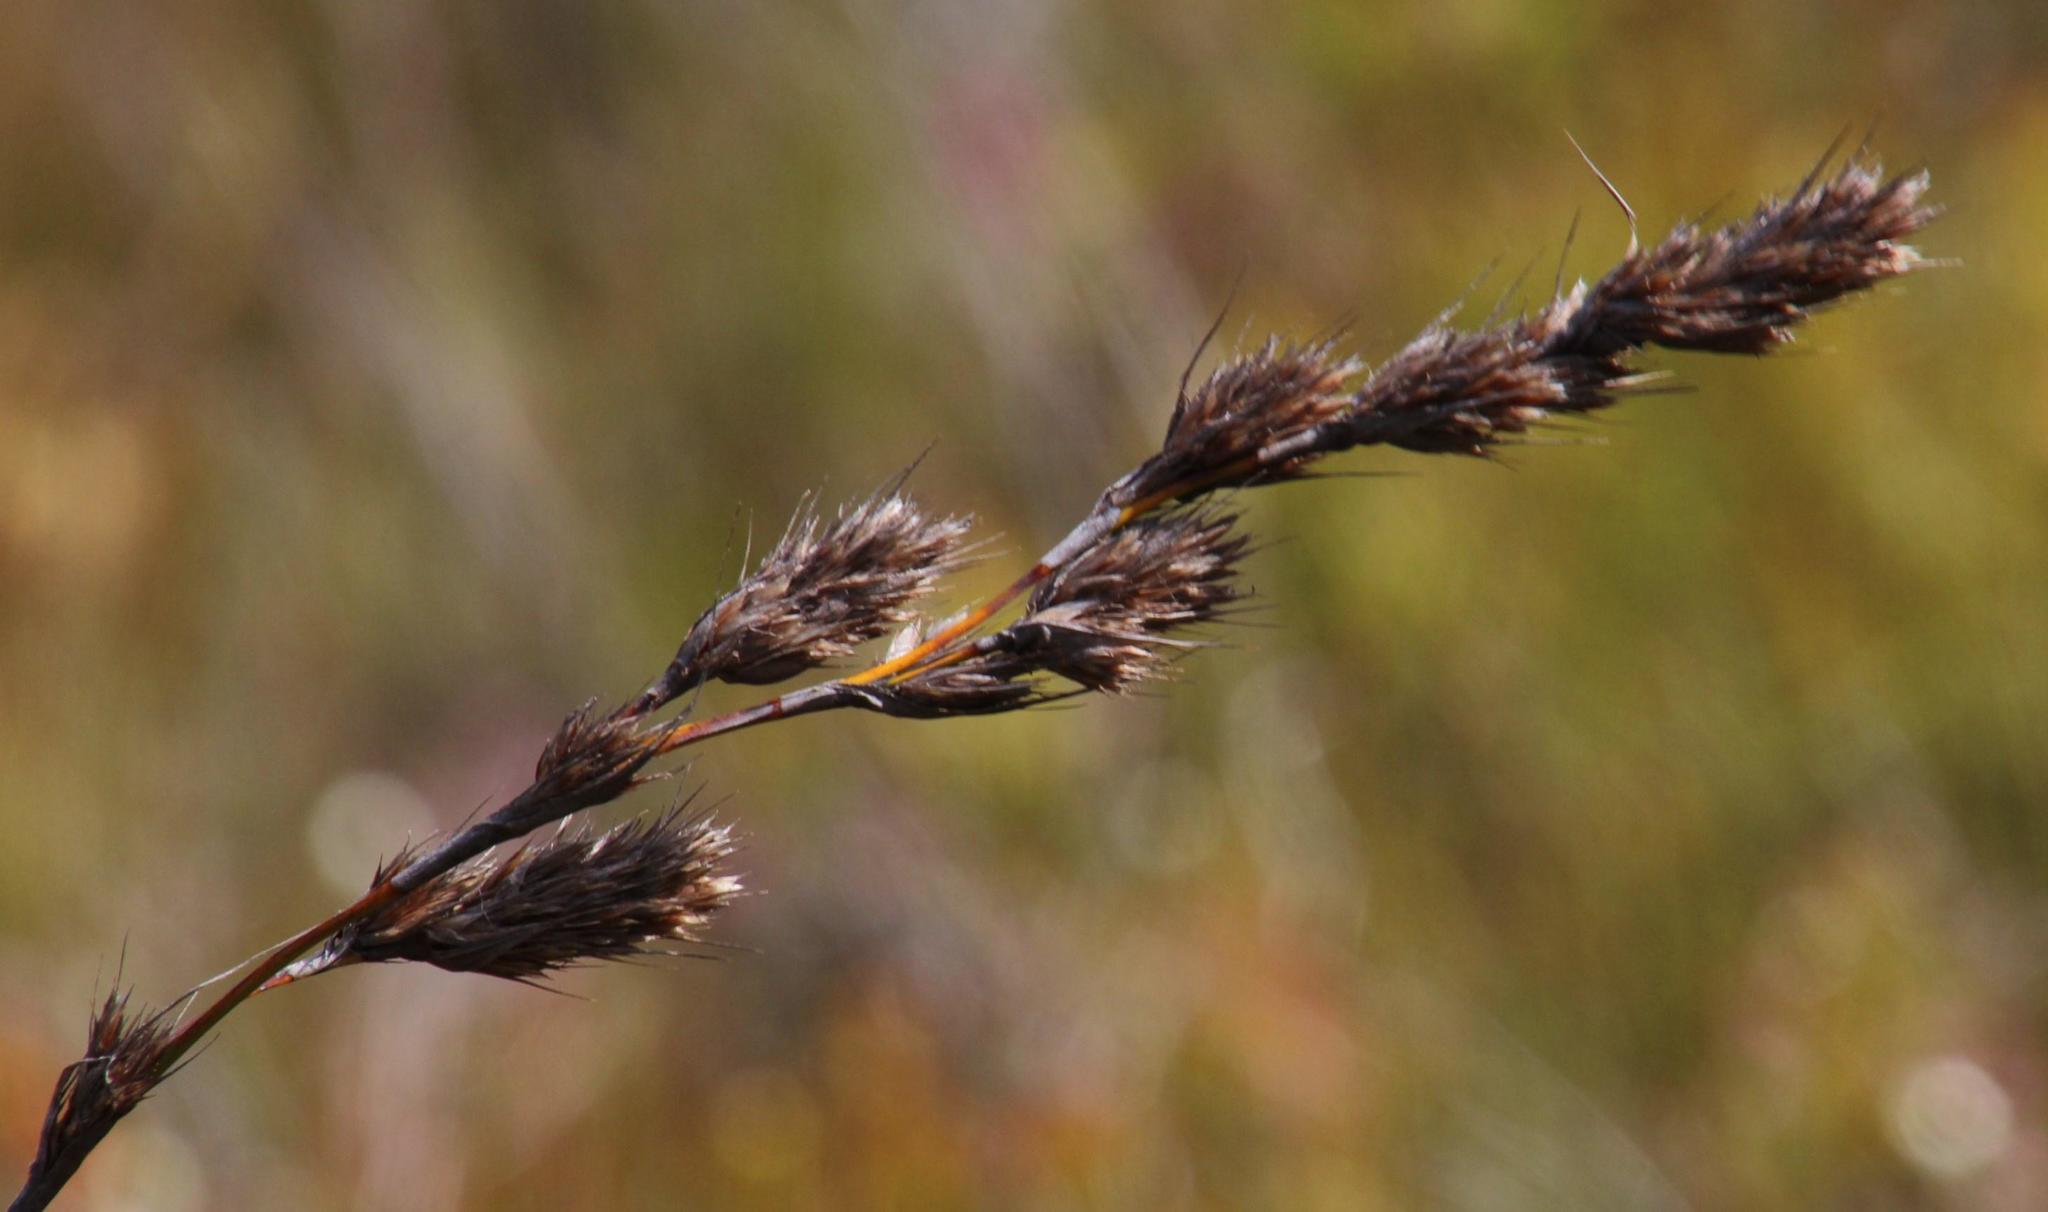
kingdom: Plantae
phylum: Tracheophyta
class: Liliopsida
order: Poales
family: Cyperaceae
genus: Tetraria
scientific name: Tetraria bromoides
